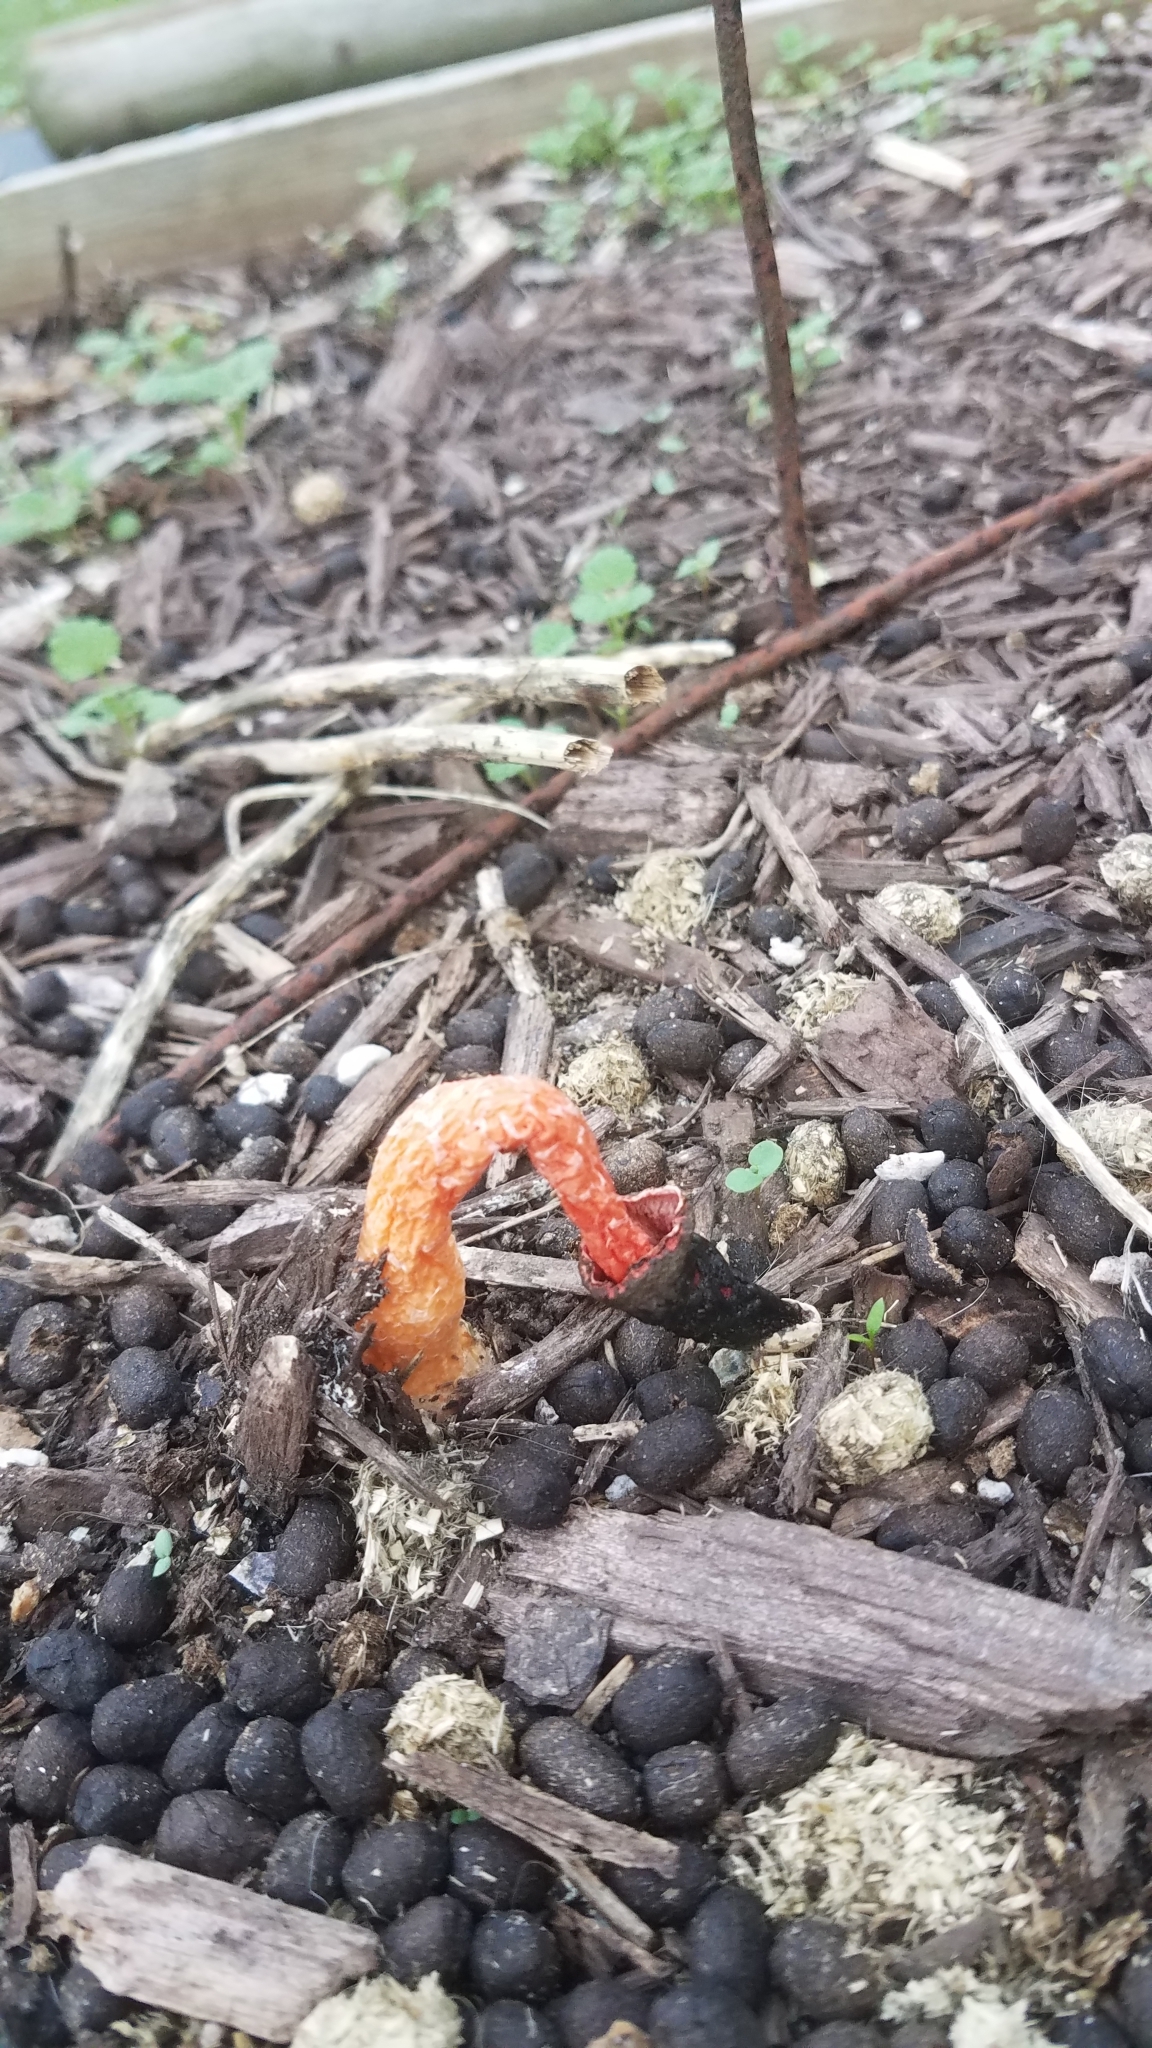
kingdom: Fungi
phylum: Basidiomycota
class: Agaricomycetes
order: Phallales
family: Phallaceae
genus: Phallus
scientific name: Phallus rugulosus
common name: Wrinkly stinkhorn
